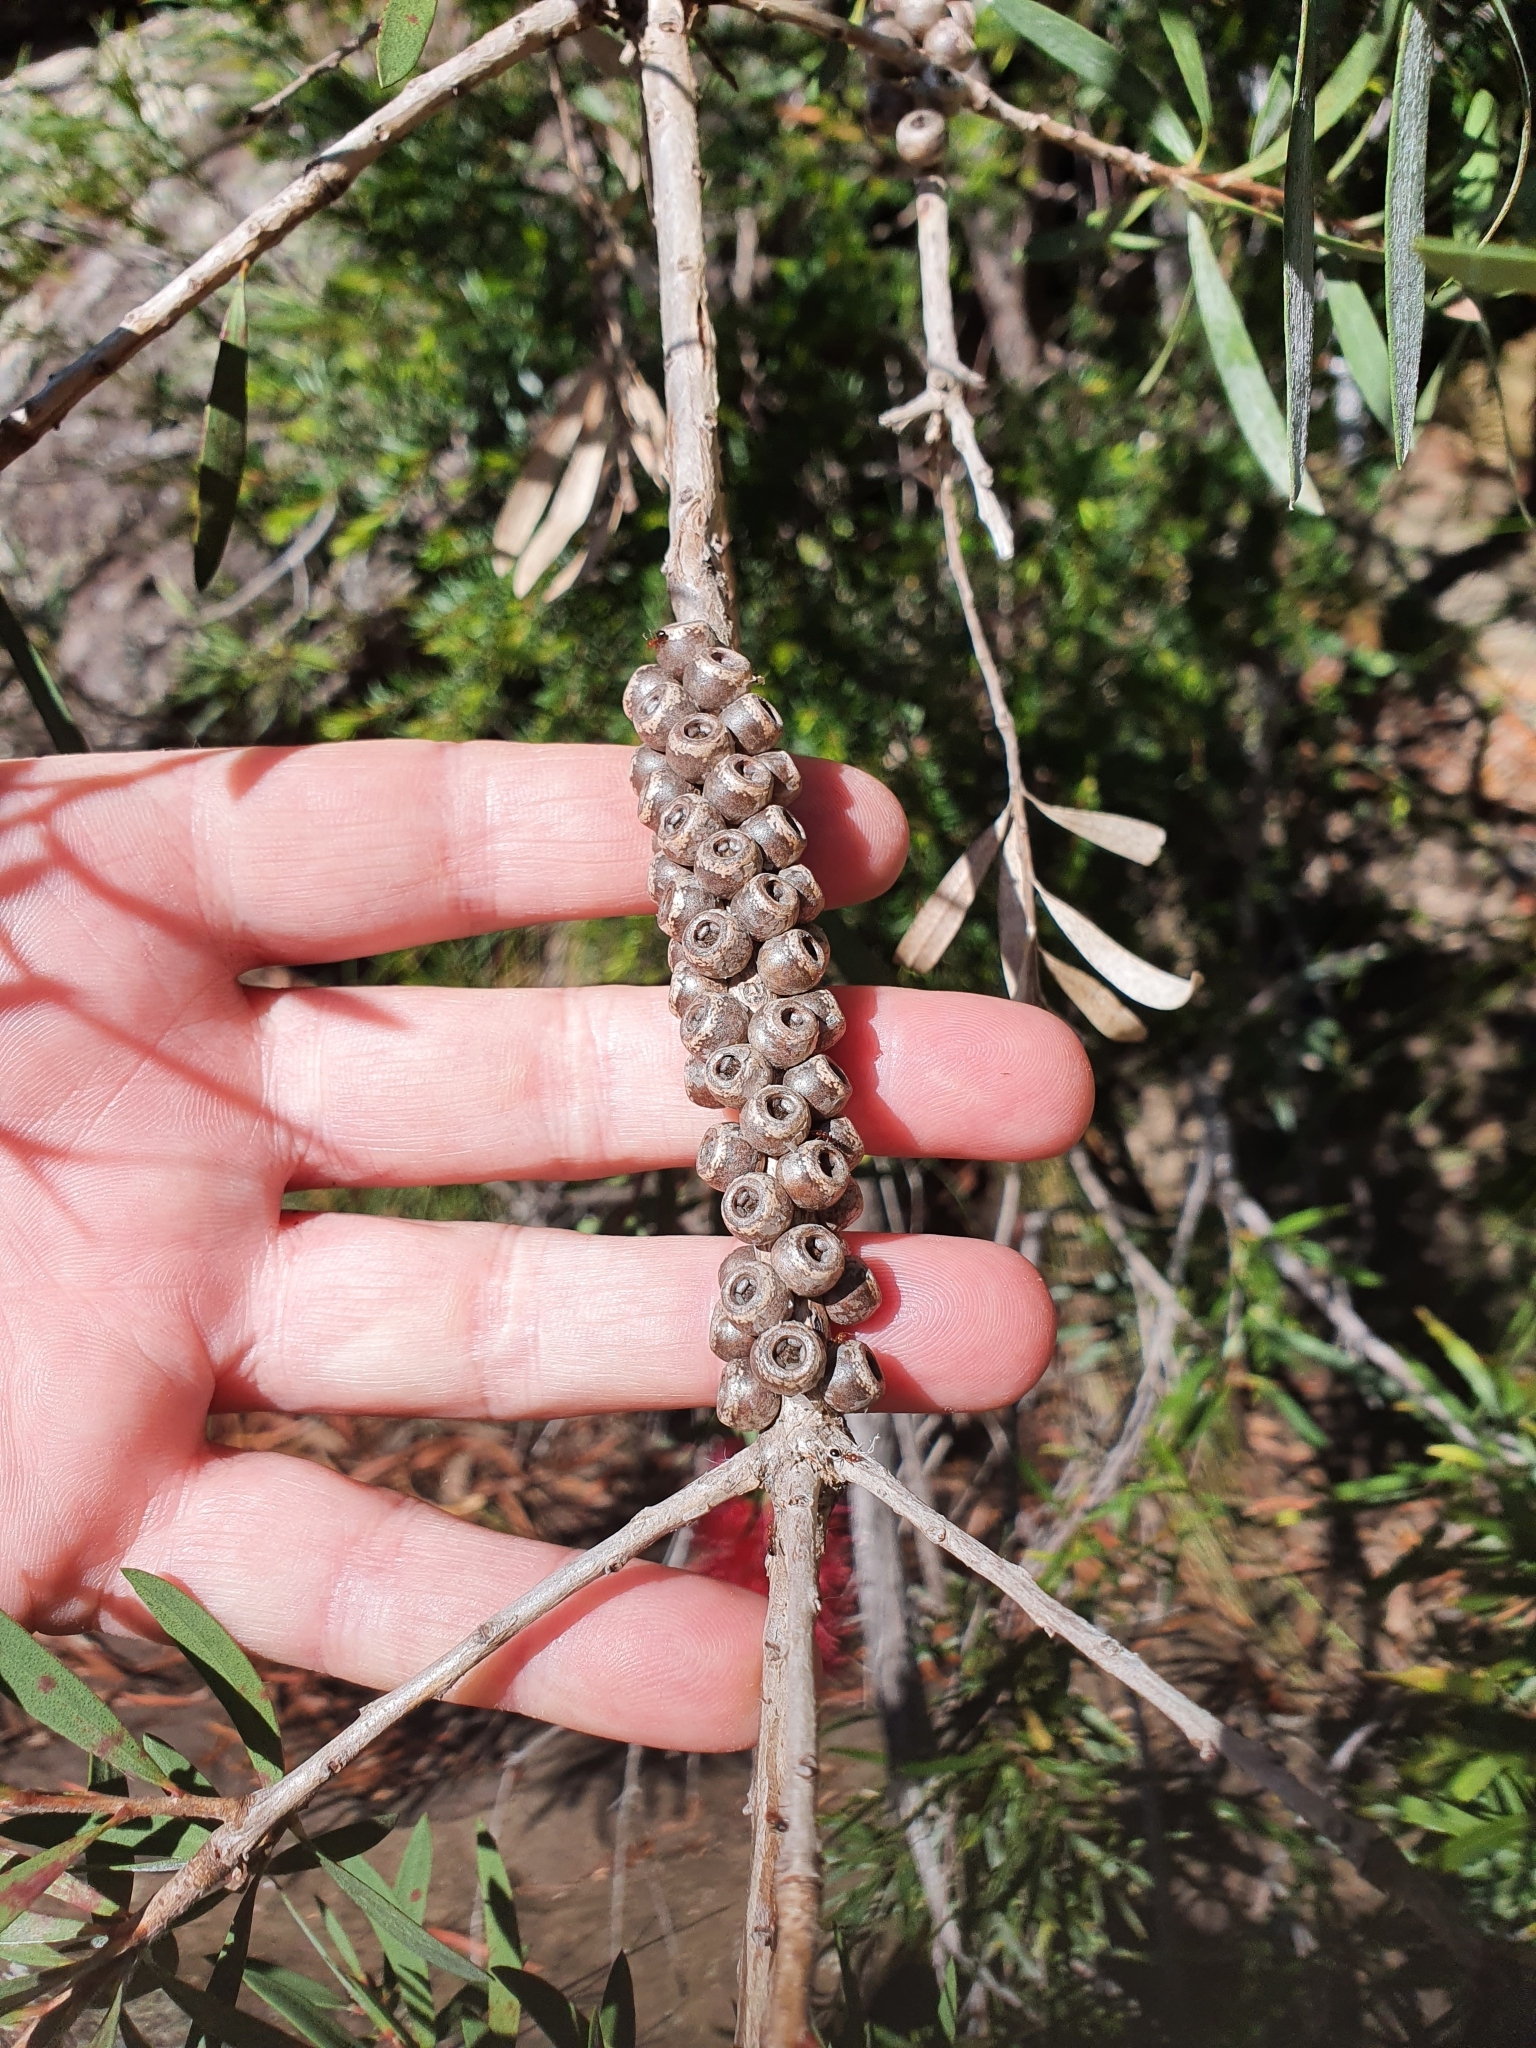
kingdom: Plantae
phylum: Tracheophyta
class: Magnoliopsida
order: Myrtales
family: Myrtaceae
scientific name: Myrtaceae
